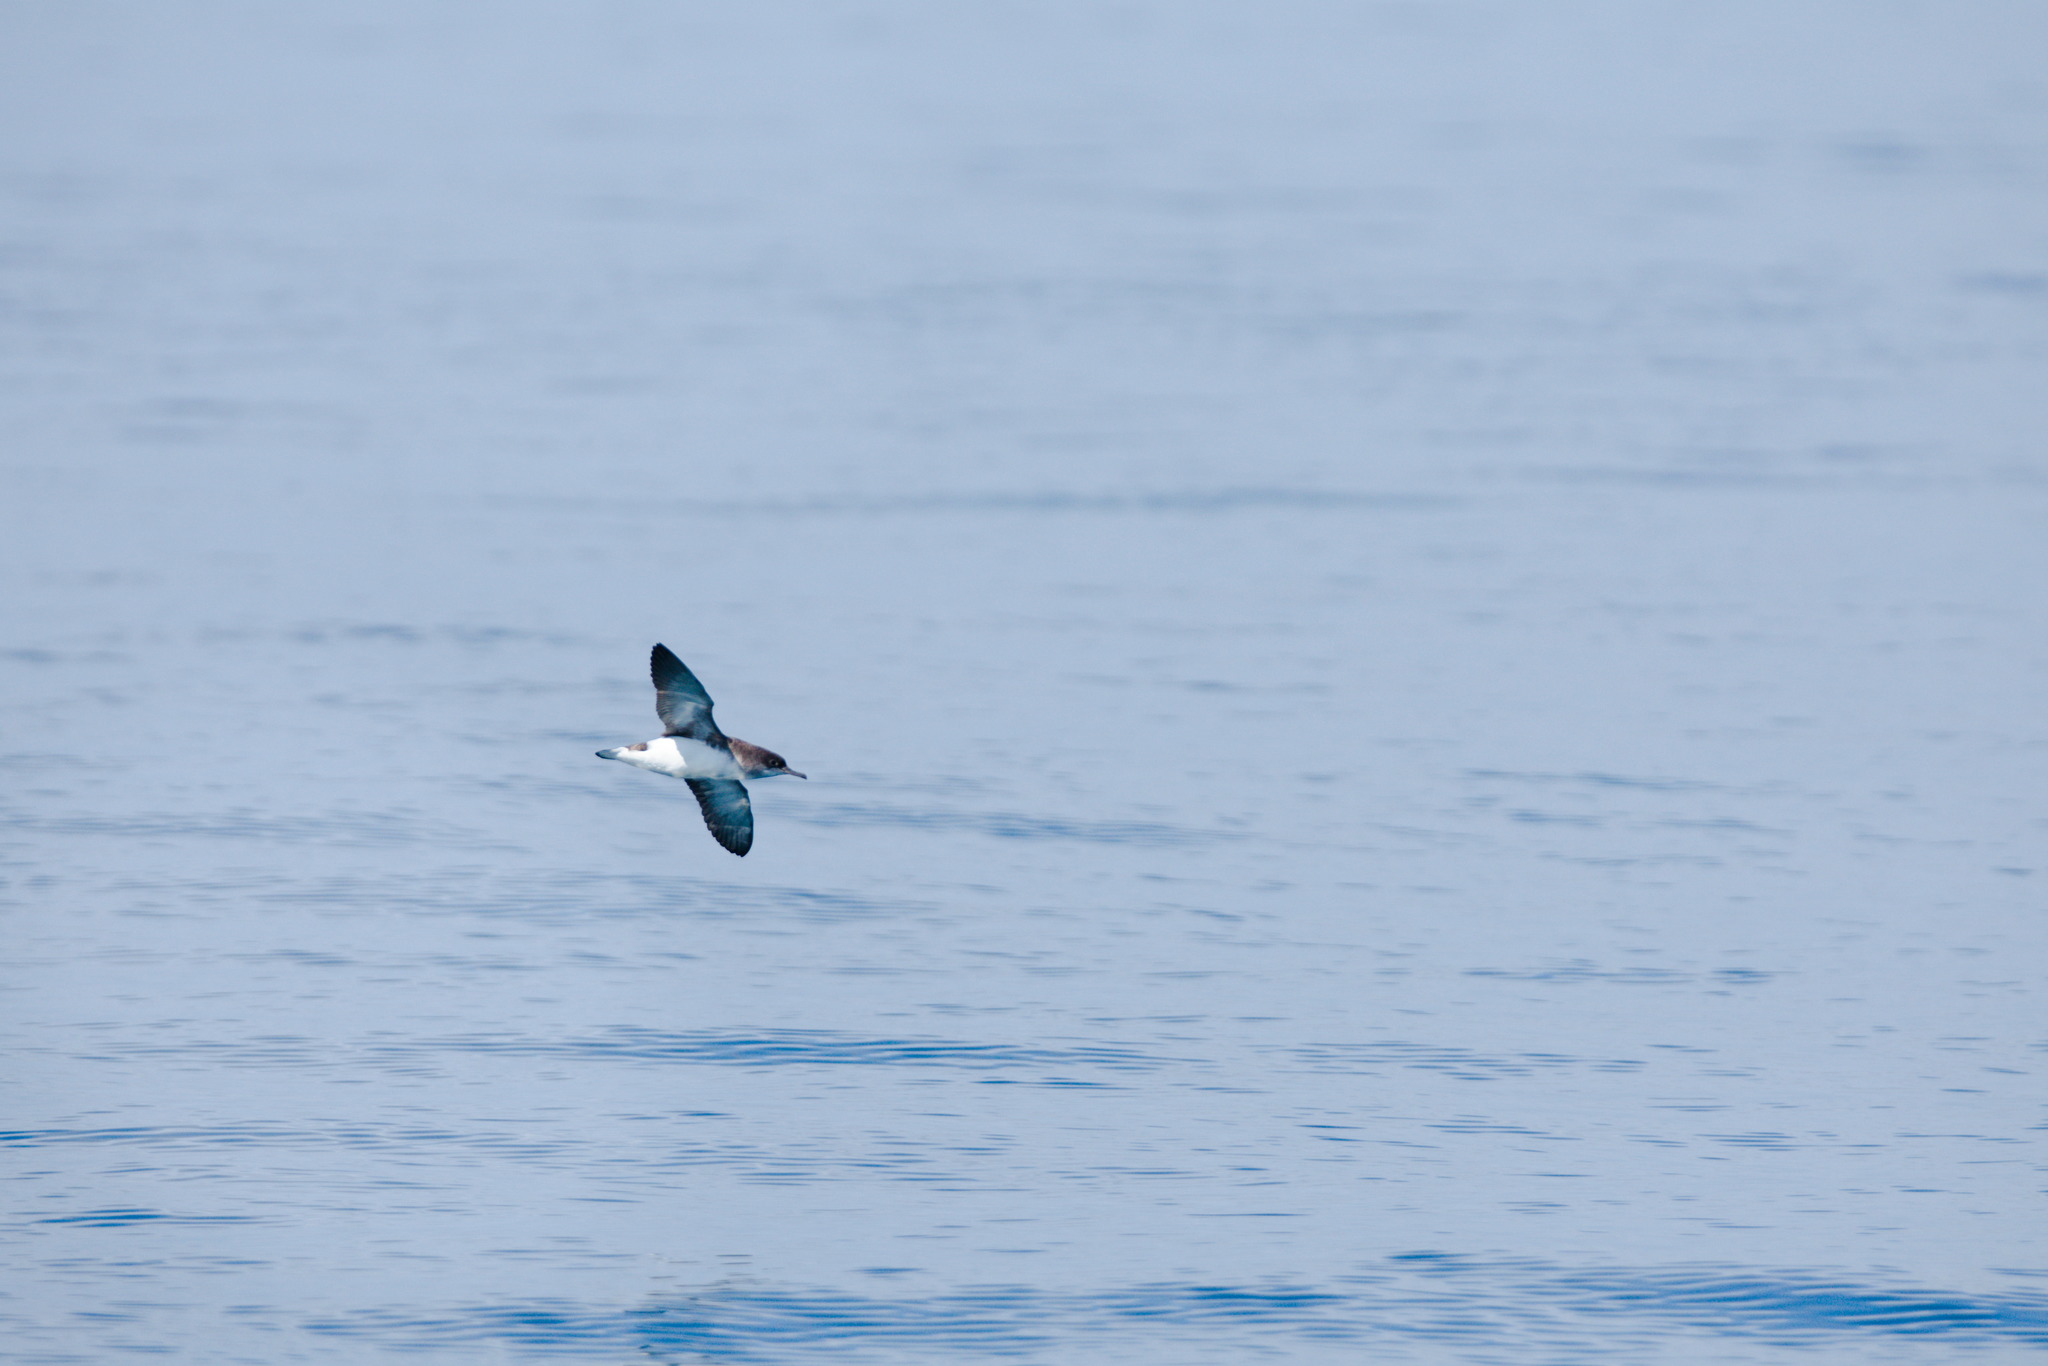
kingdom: Animalia
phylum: Chordata
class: Aves
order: Procellariiformes
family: Procellariidae
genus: Puffinus
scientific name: Puffinus gavia
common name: Fluttering shearwater
